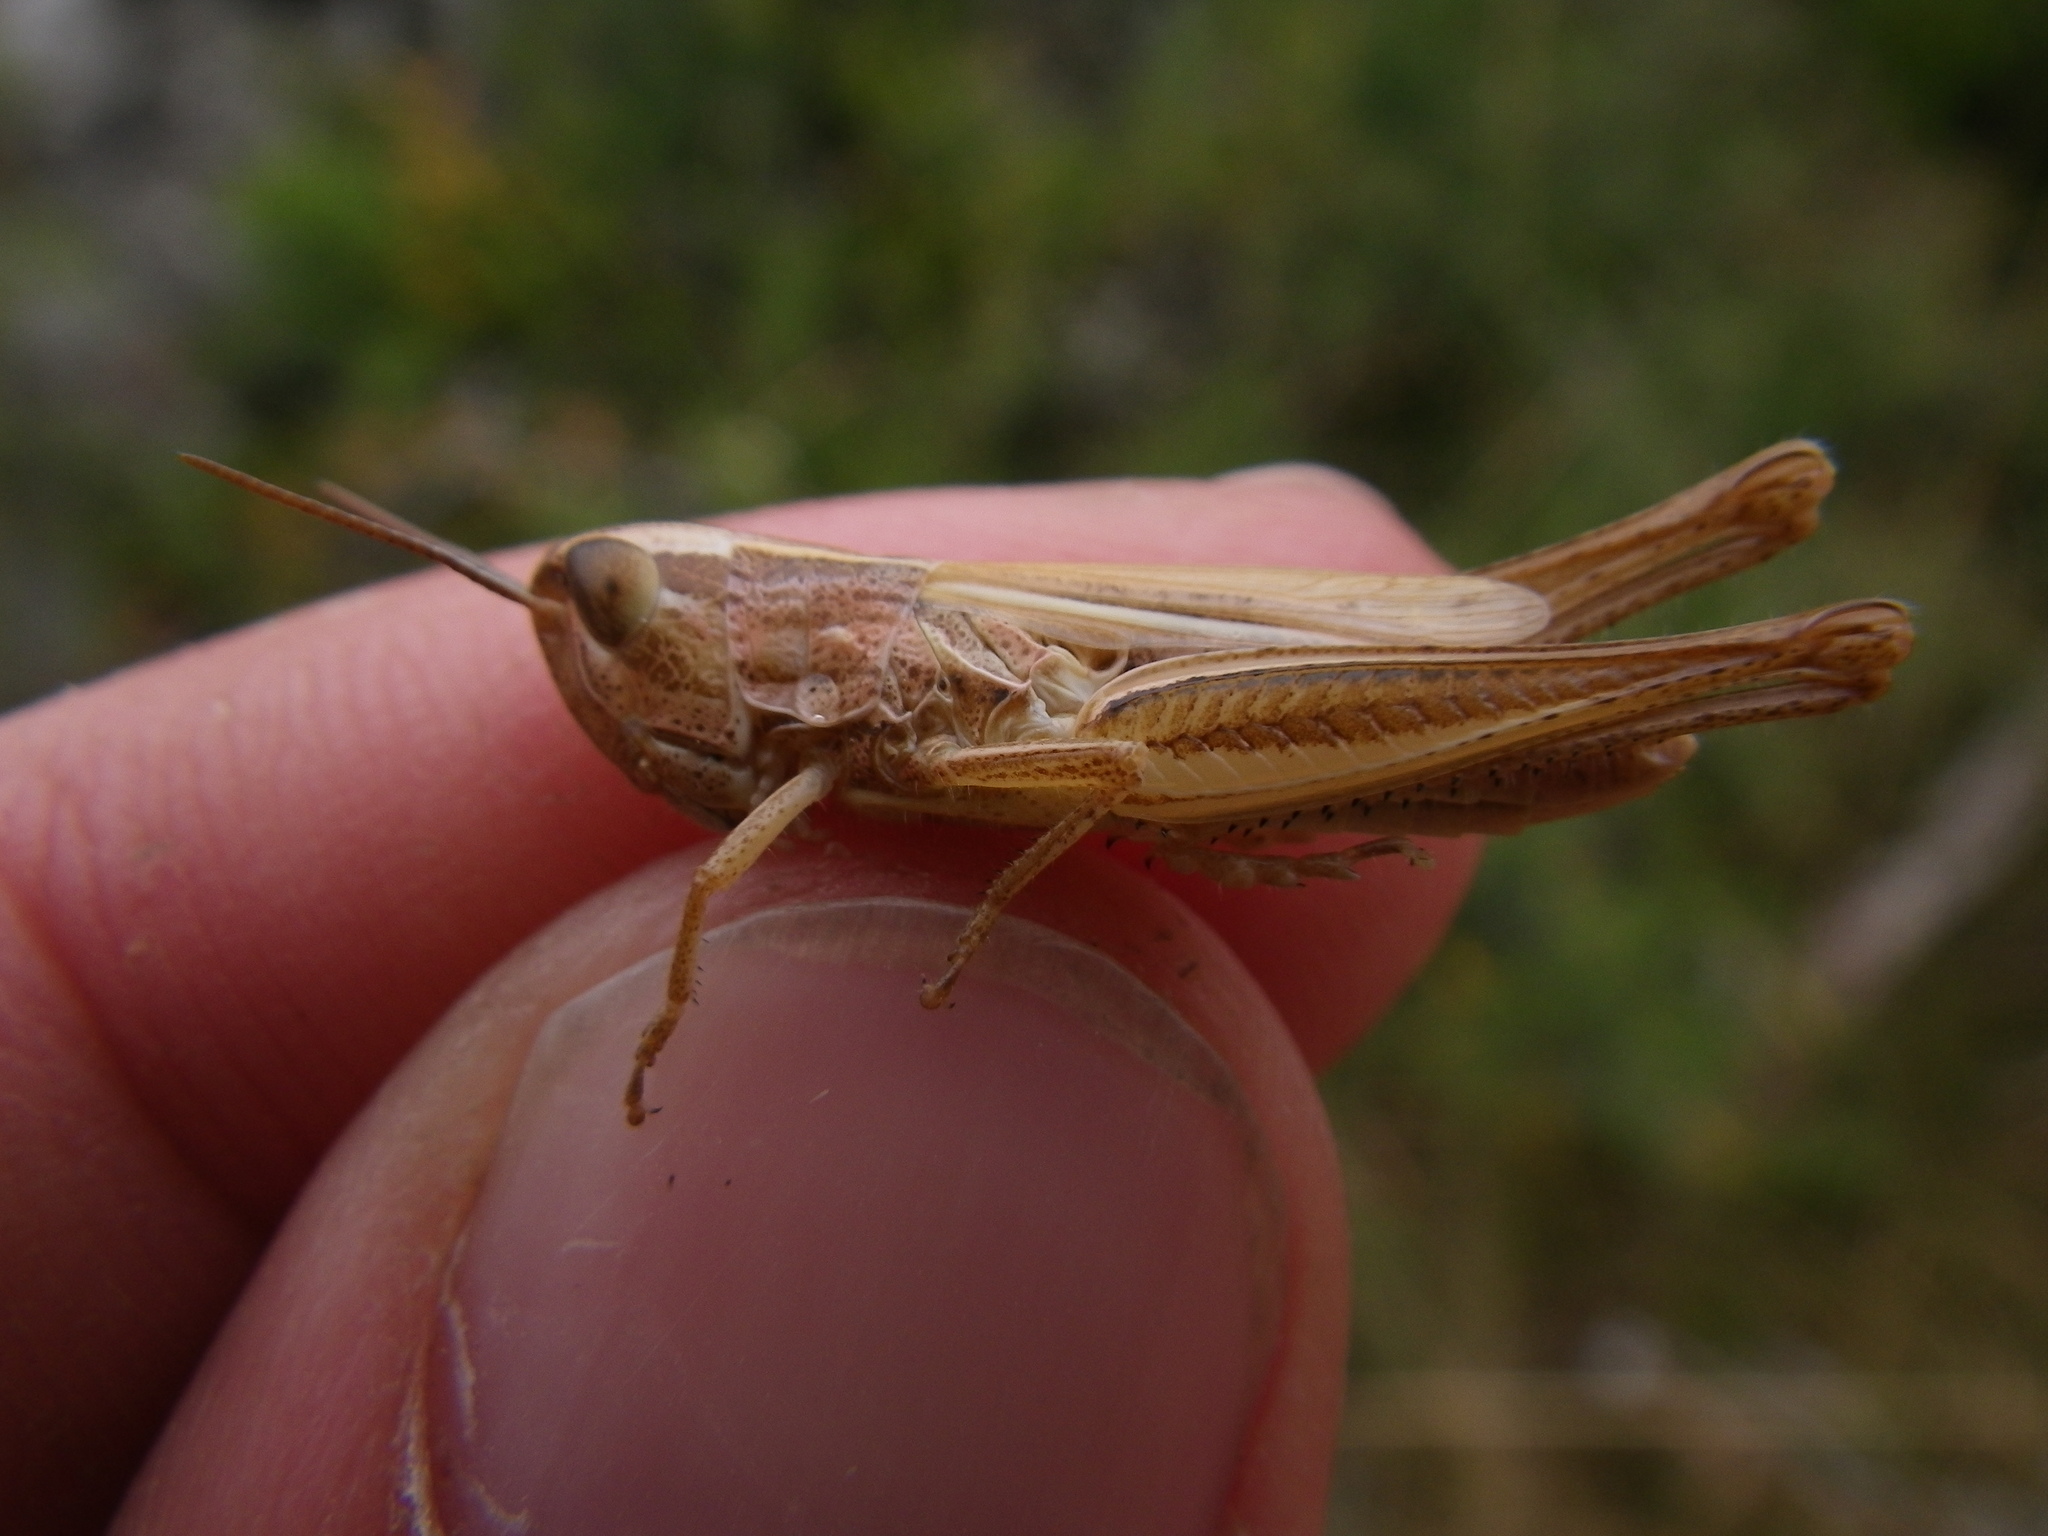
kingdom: Animalia
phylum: Arthropoda
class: Insecta
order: Orthoptera
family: Acrididae
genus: Euchorthippus
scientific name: Euchorthippus declivus
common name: Common straw grasshopper
